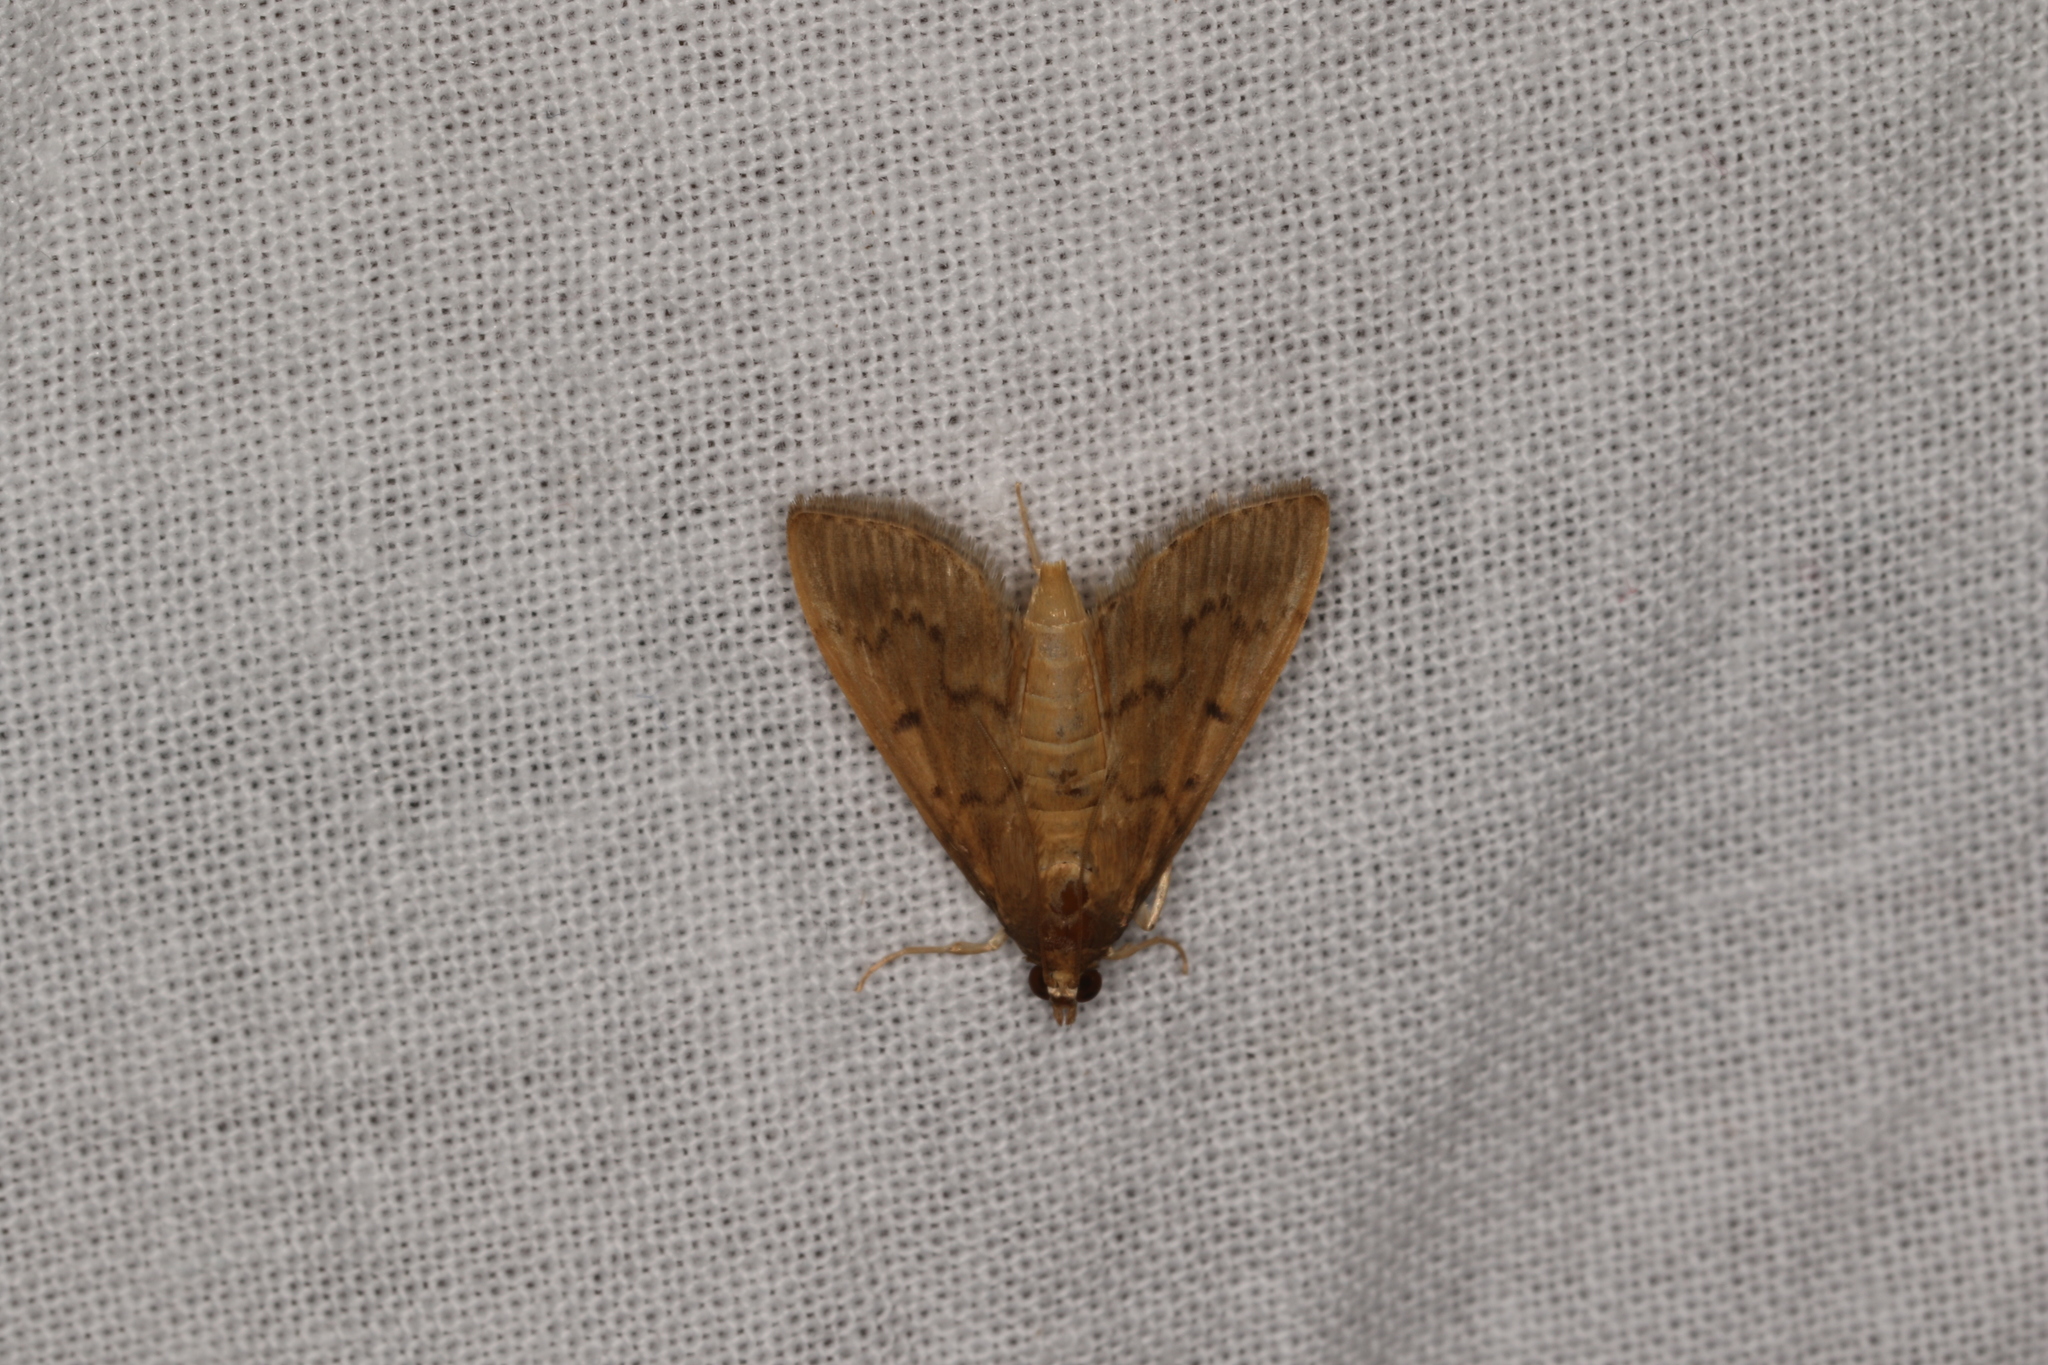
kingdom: Animalia
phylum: Arthropoda
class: Insecta
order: Lepidoptera
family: Crambidae
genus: Herpetogramma
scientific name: Herpetogramma licarsisalis
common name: Grass webworm
